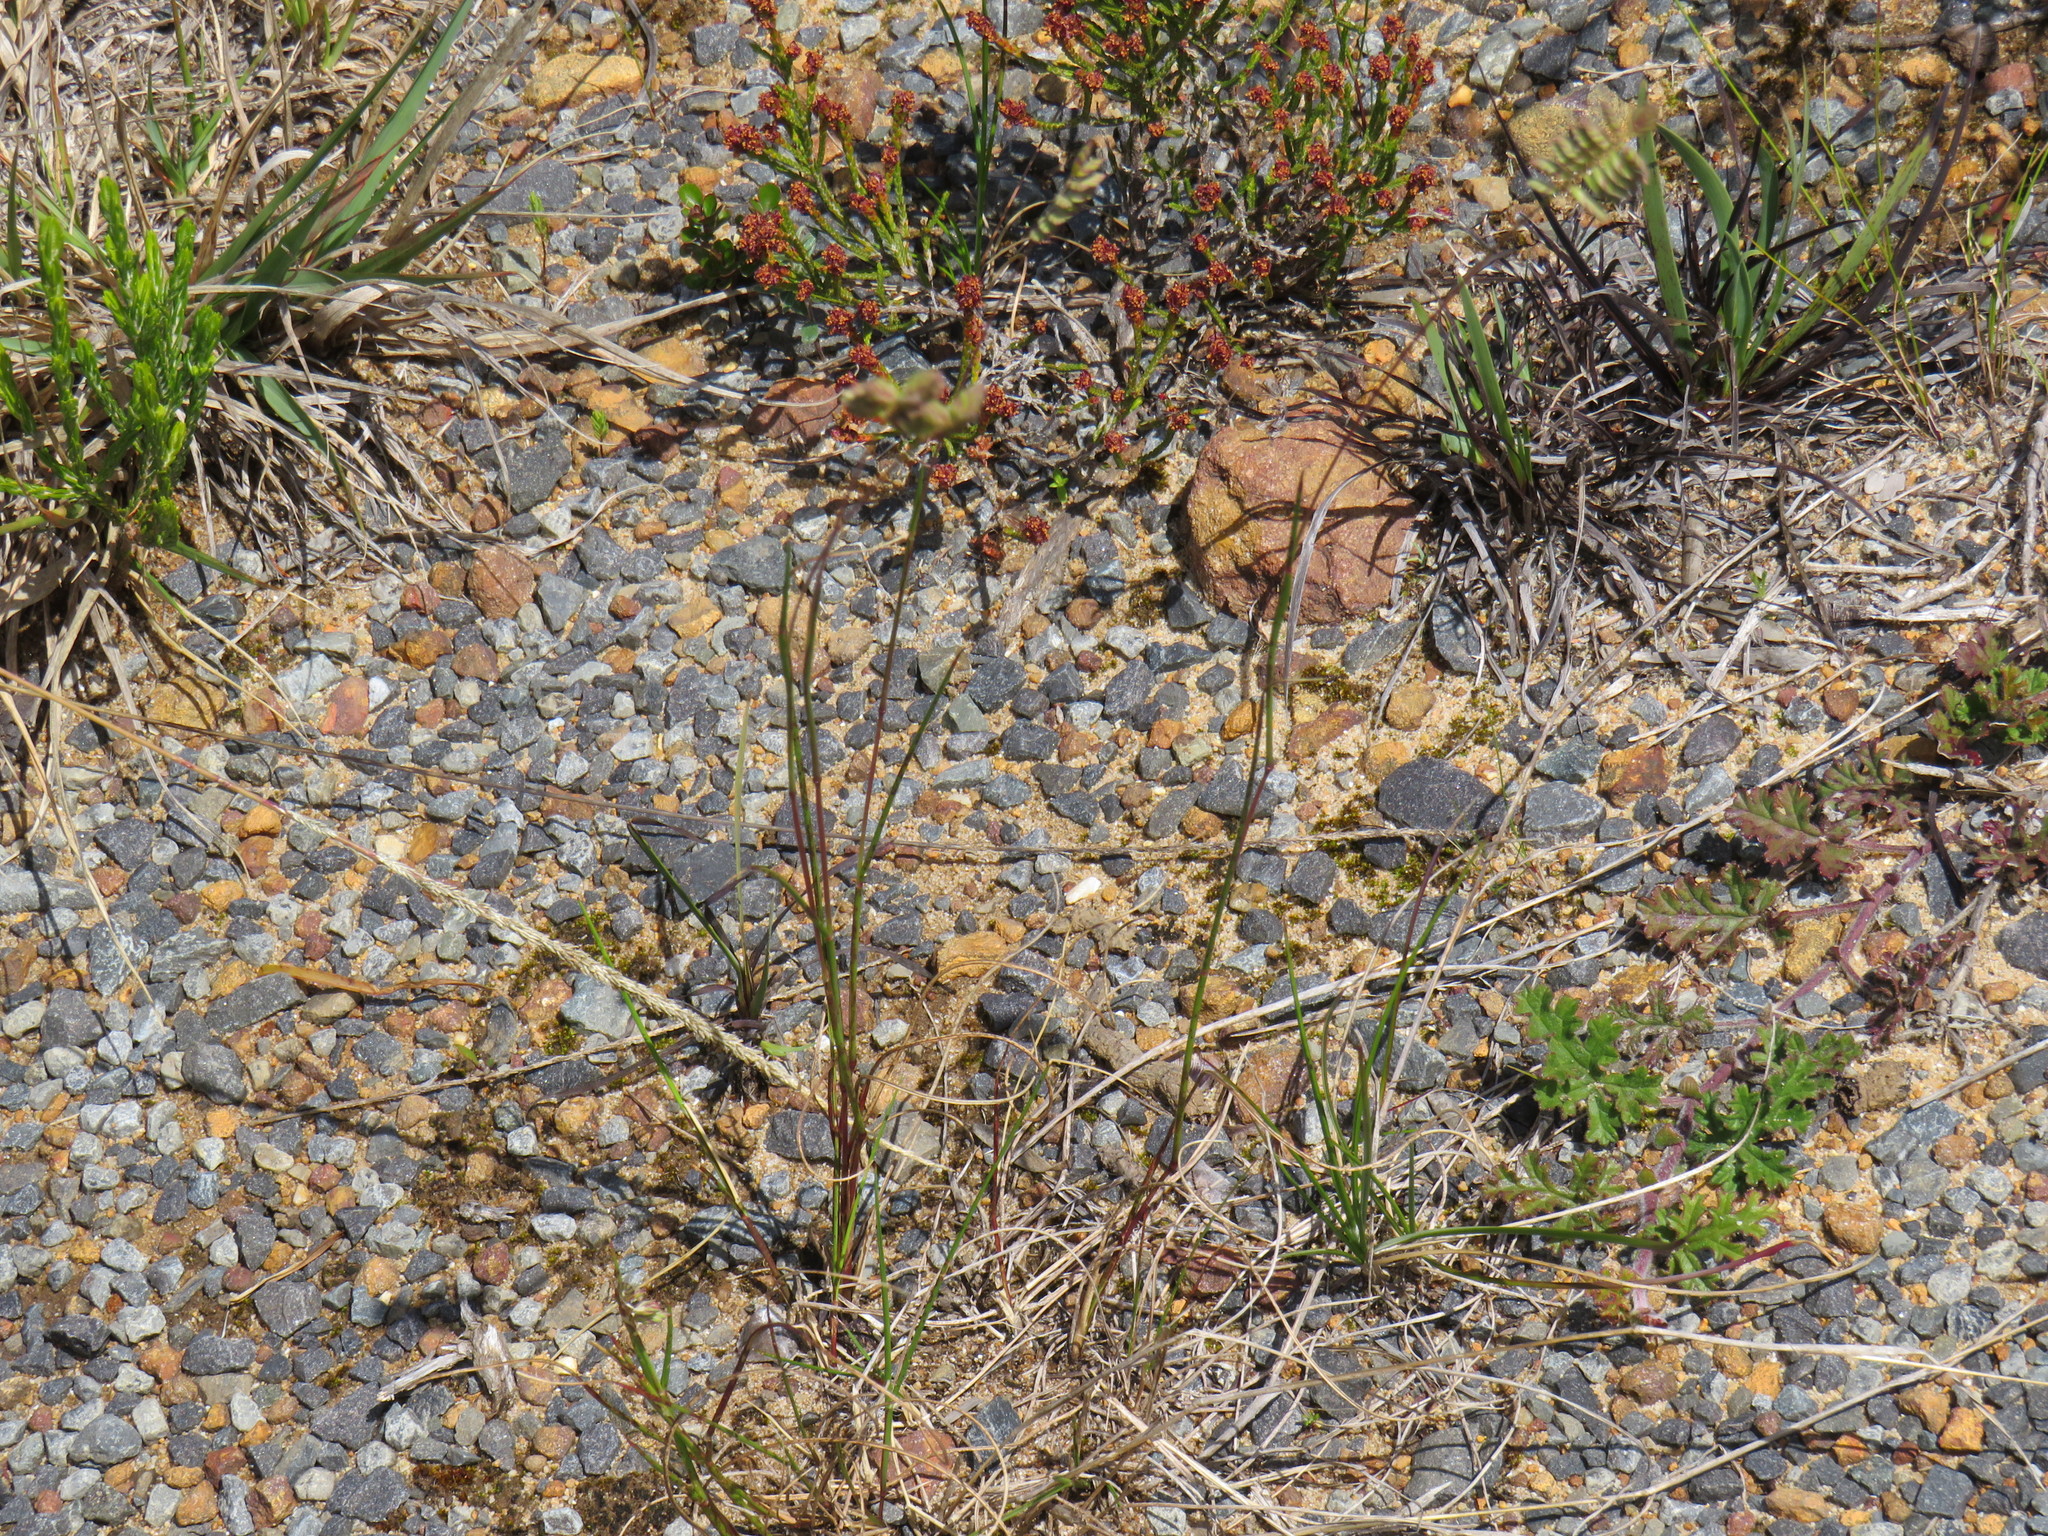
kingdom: Plantae
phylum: Tracheophyta
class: Liliopsida
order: Poales
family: Poaceae
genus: Tribolium
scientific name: Tribolium uniolae
